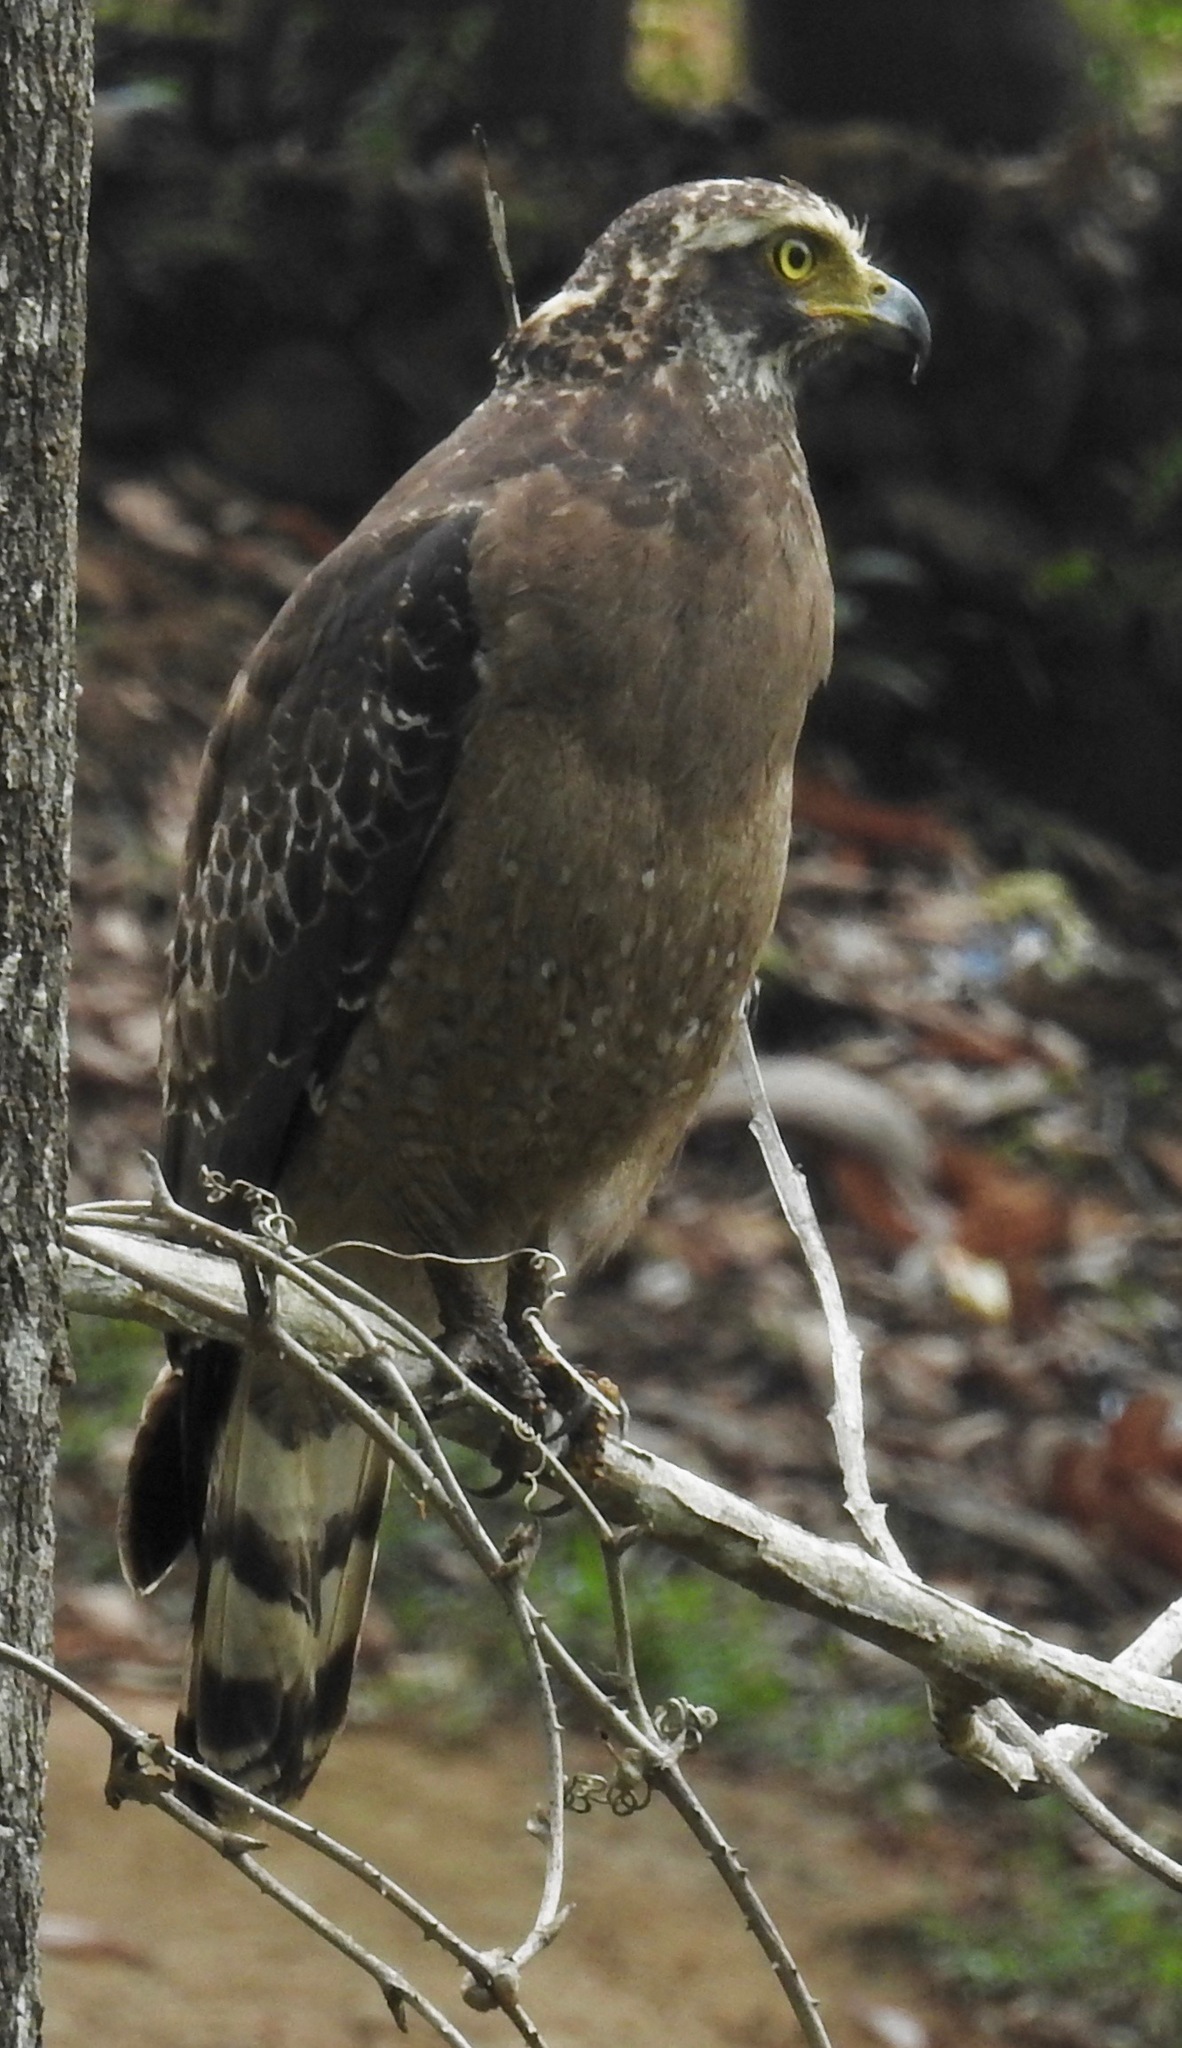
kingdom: Animalia
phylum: Chordata
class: Aves
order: Accipitriformes
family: Accipitridae
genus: Spilornis
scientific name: Spilornis cheela
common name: Crested serpent eagle
